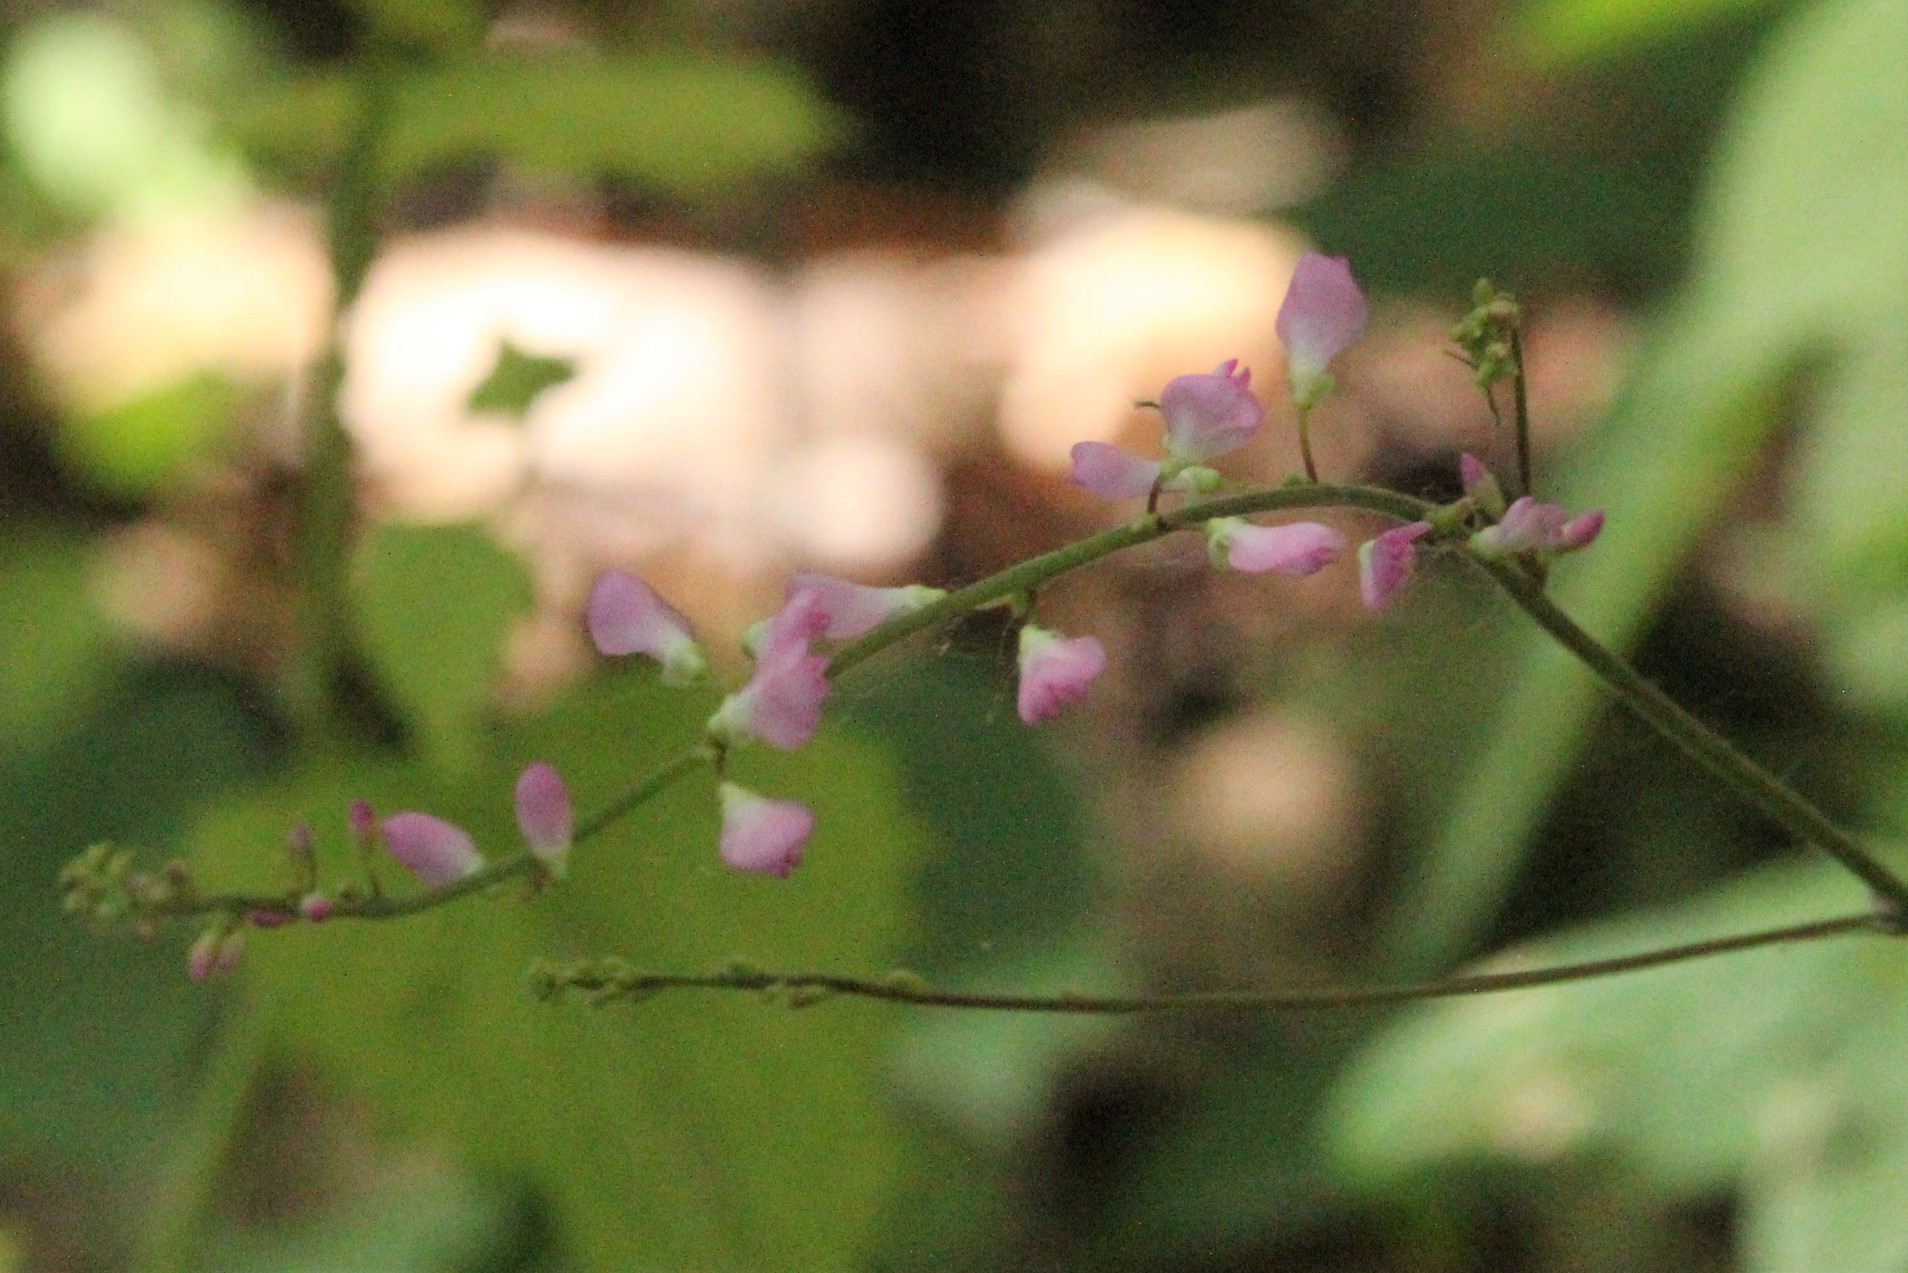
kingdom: Plantae
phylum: Tracheophyta
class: Magnoliopsida
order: Fabales
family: Fabaceae
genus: Hylodesmum
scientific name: Hylodesmum glutinosum
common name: Clustered-leaved tick-trefoil
